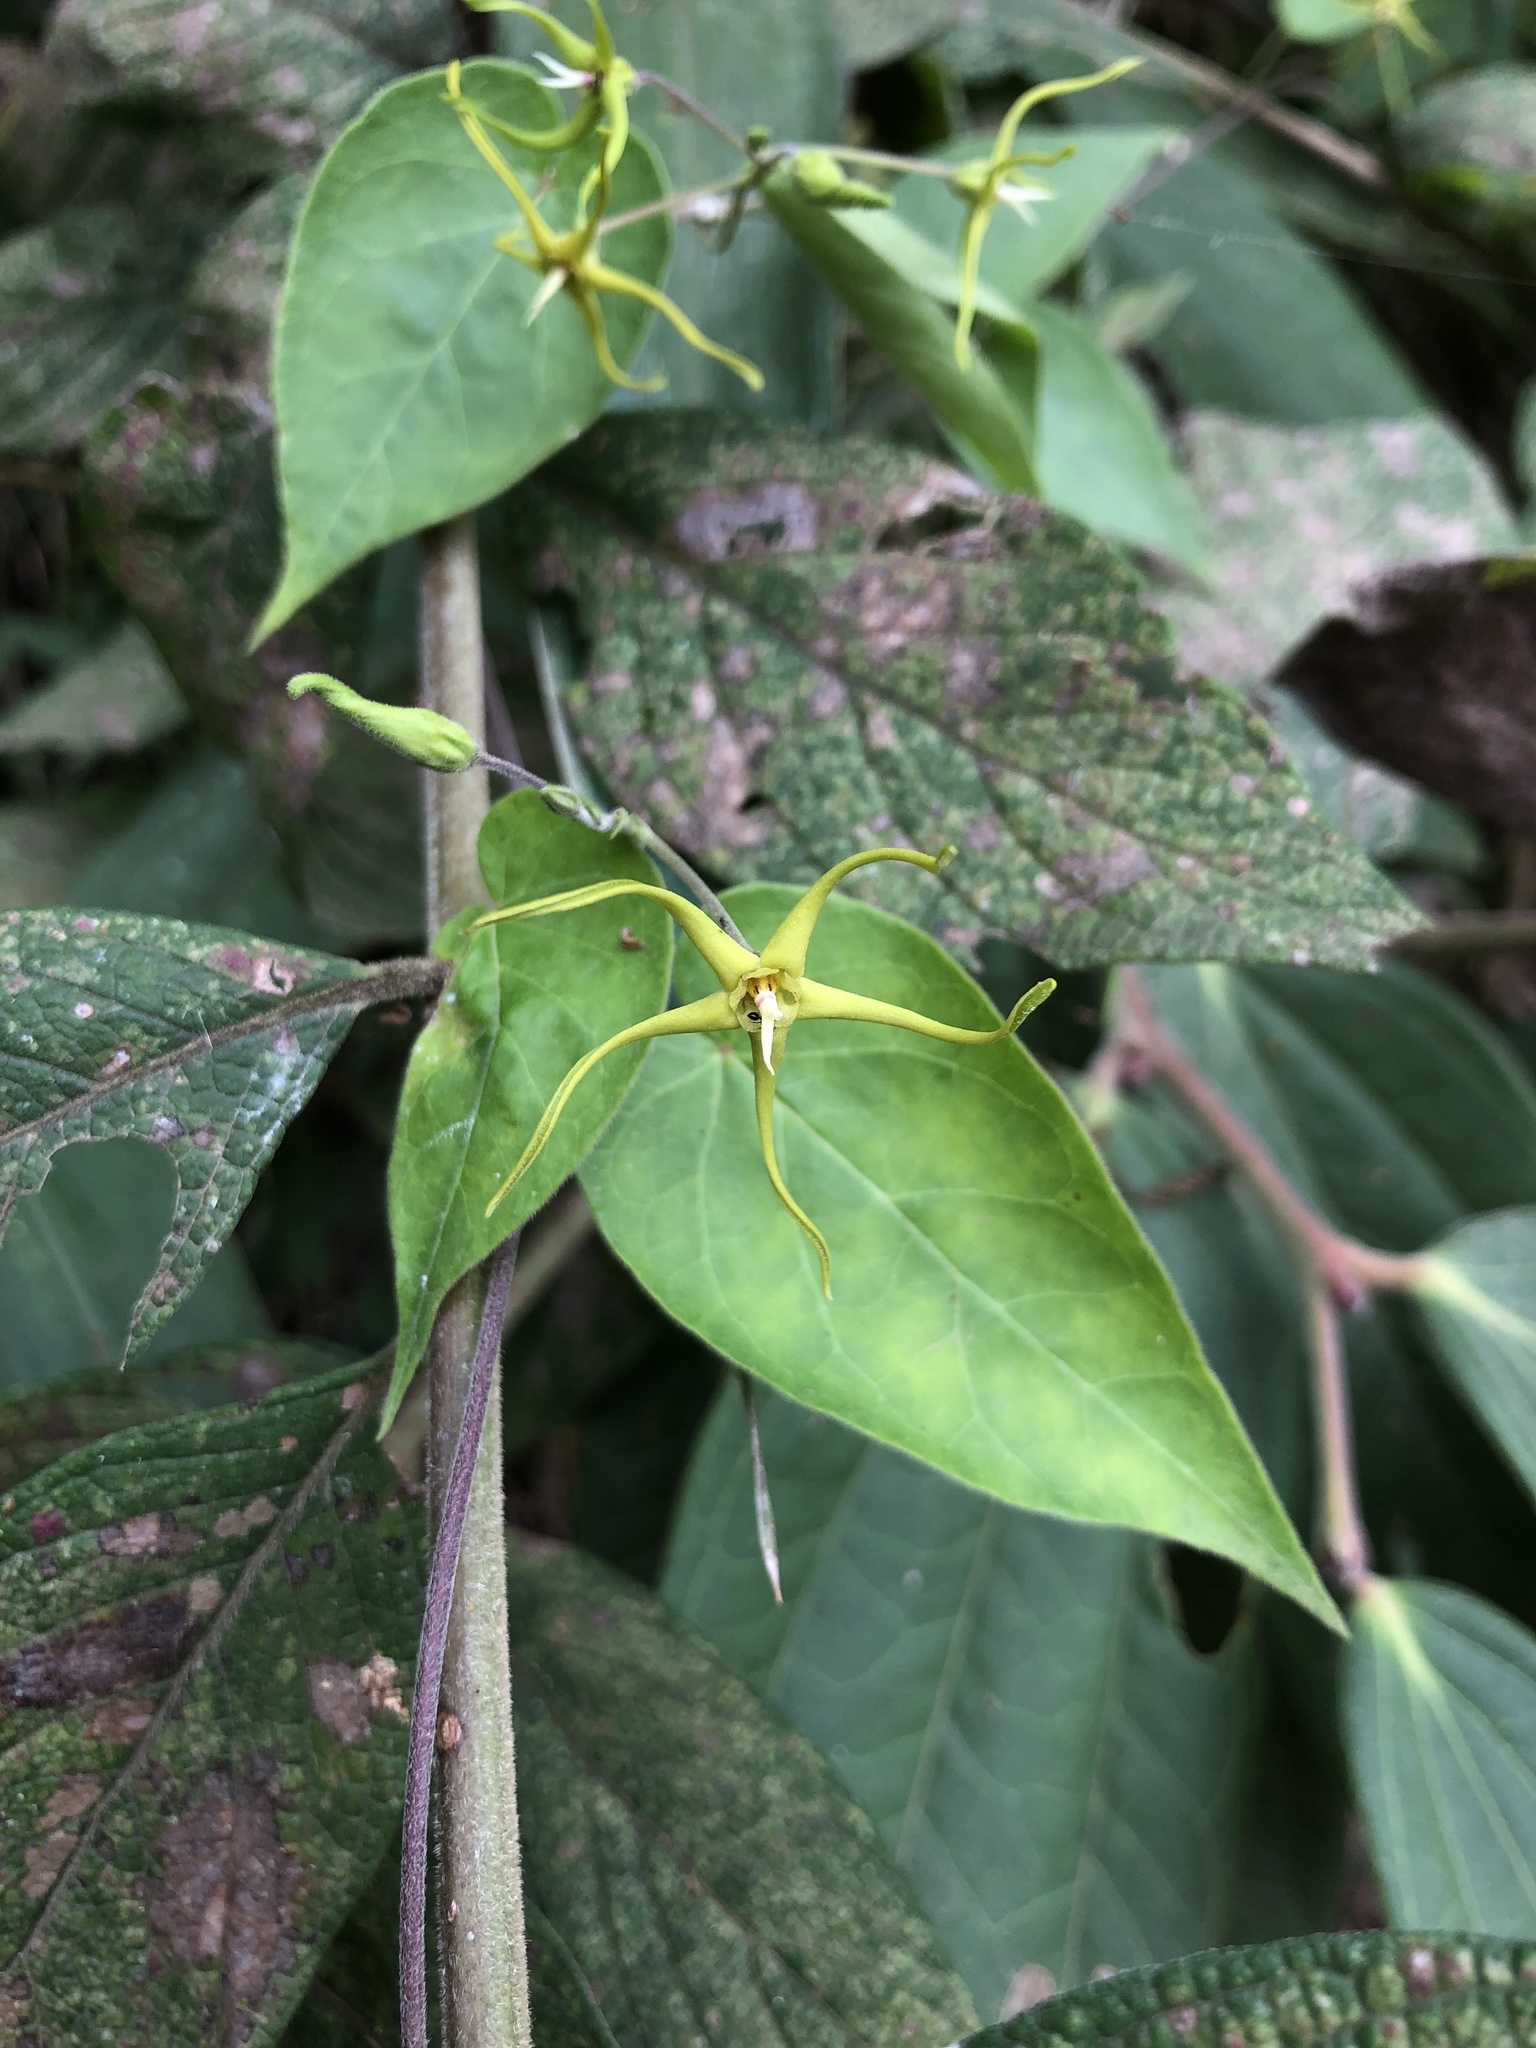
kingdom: Plantae
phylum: Tracheophyta
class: Magnoliopsida
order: Gentianales
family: Apocynaceae
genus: Oxypetalum
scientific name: Oxypetalum cordifolium
